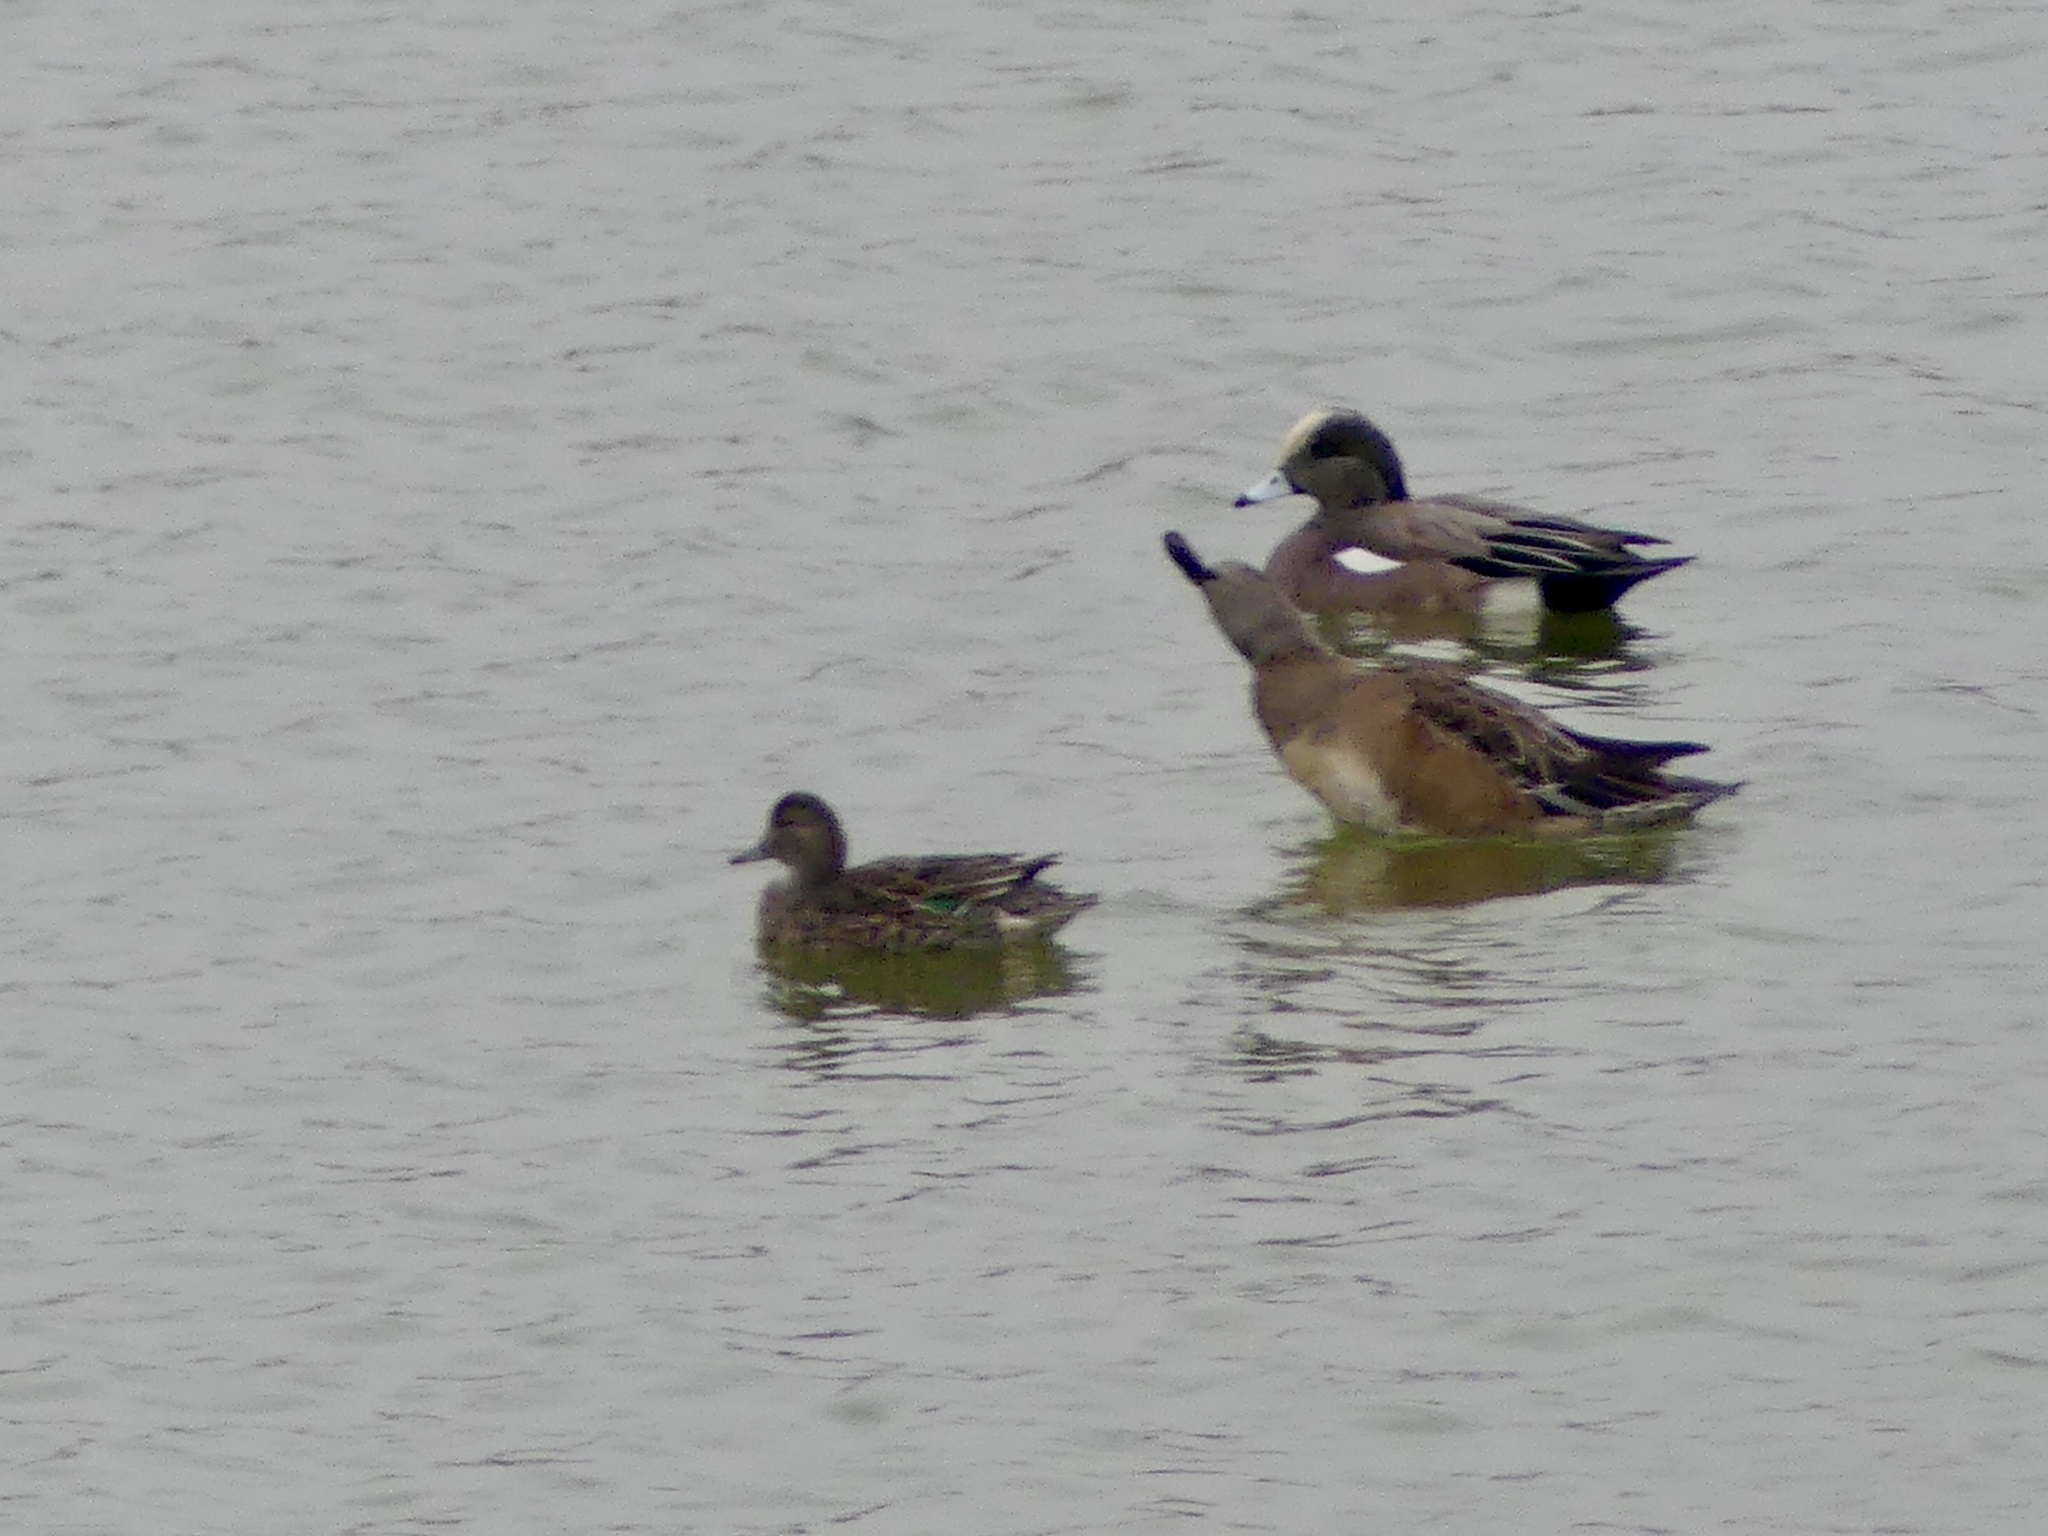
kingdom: Animalia
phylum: Chordata
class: Aves
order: Anseriformes
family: Anatidae
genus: Mareca
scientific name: Mareca americana
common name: American wigeon
